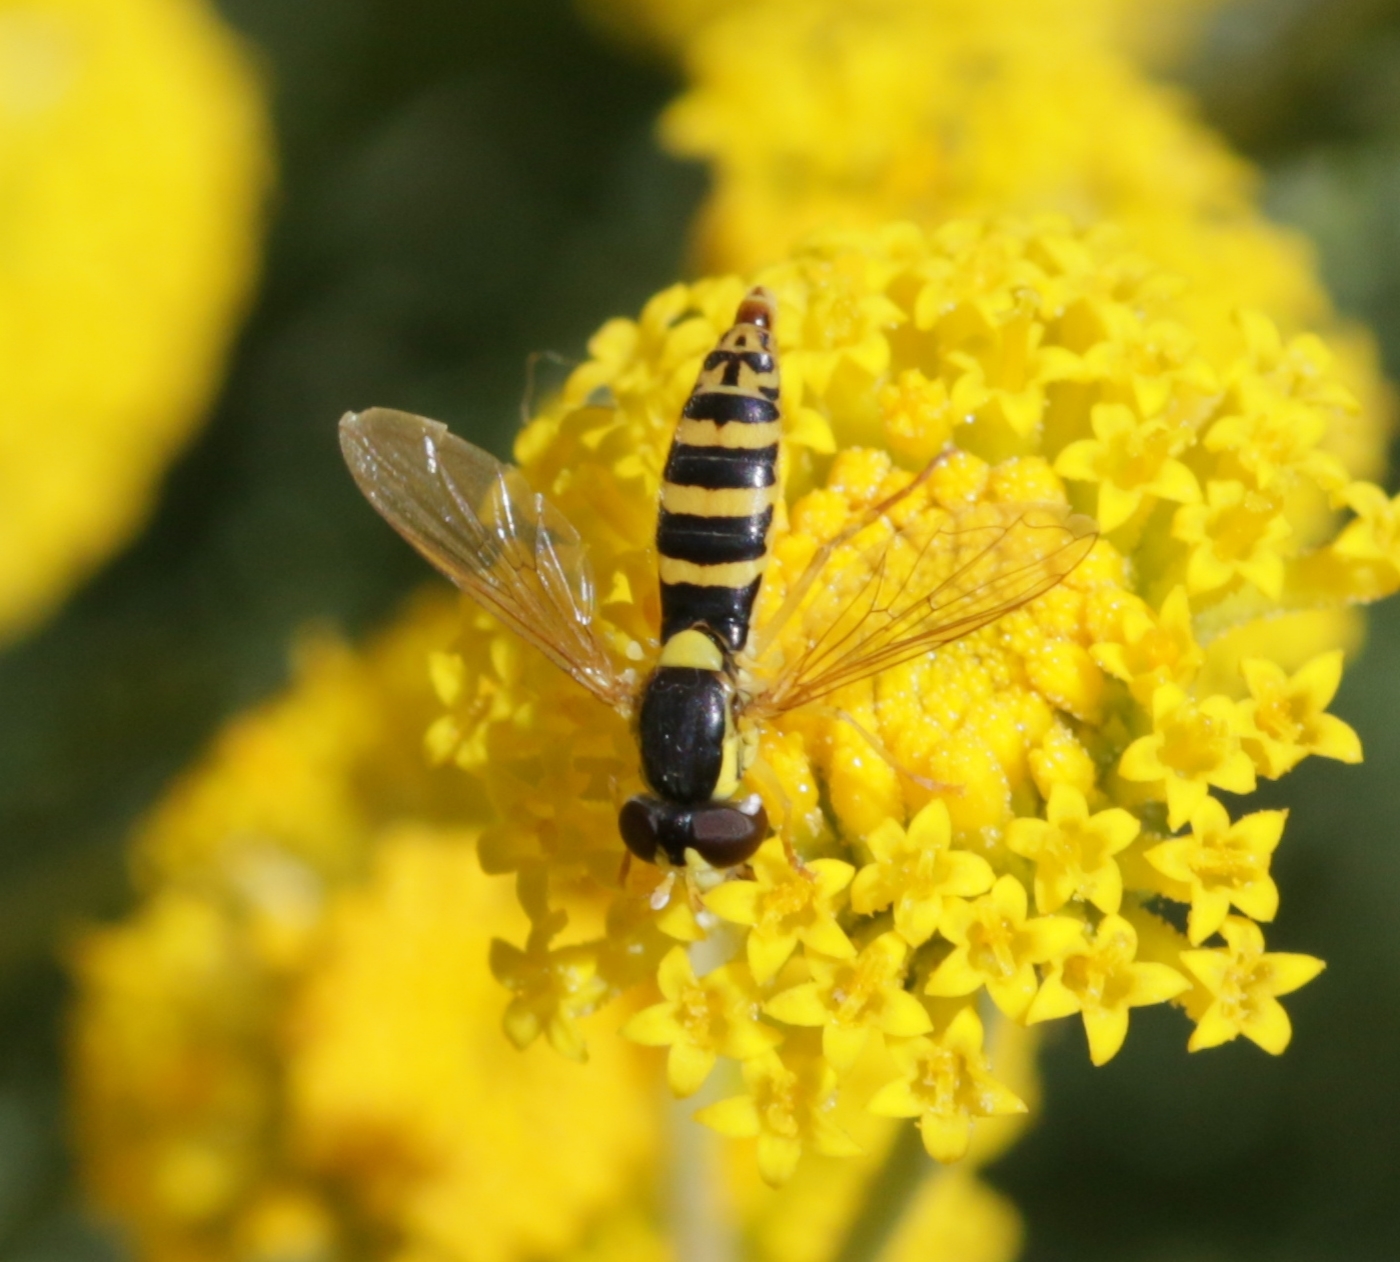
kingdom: Animalia
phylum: Arthropoda
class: Insecta
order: Diptera
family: Syrphidae
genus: Sphaerophoria
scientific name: Sphaerophoria
